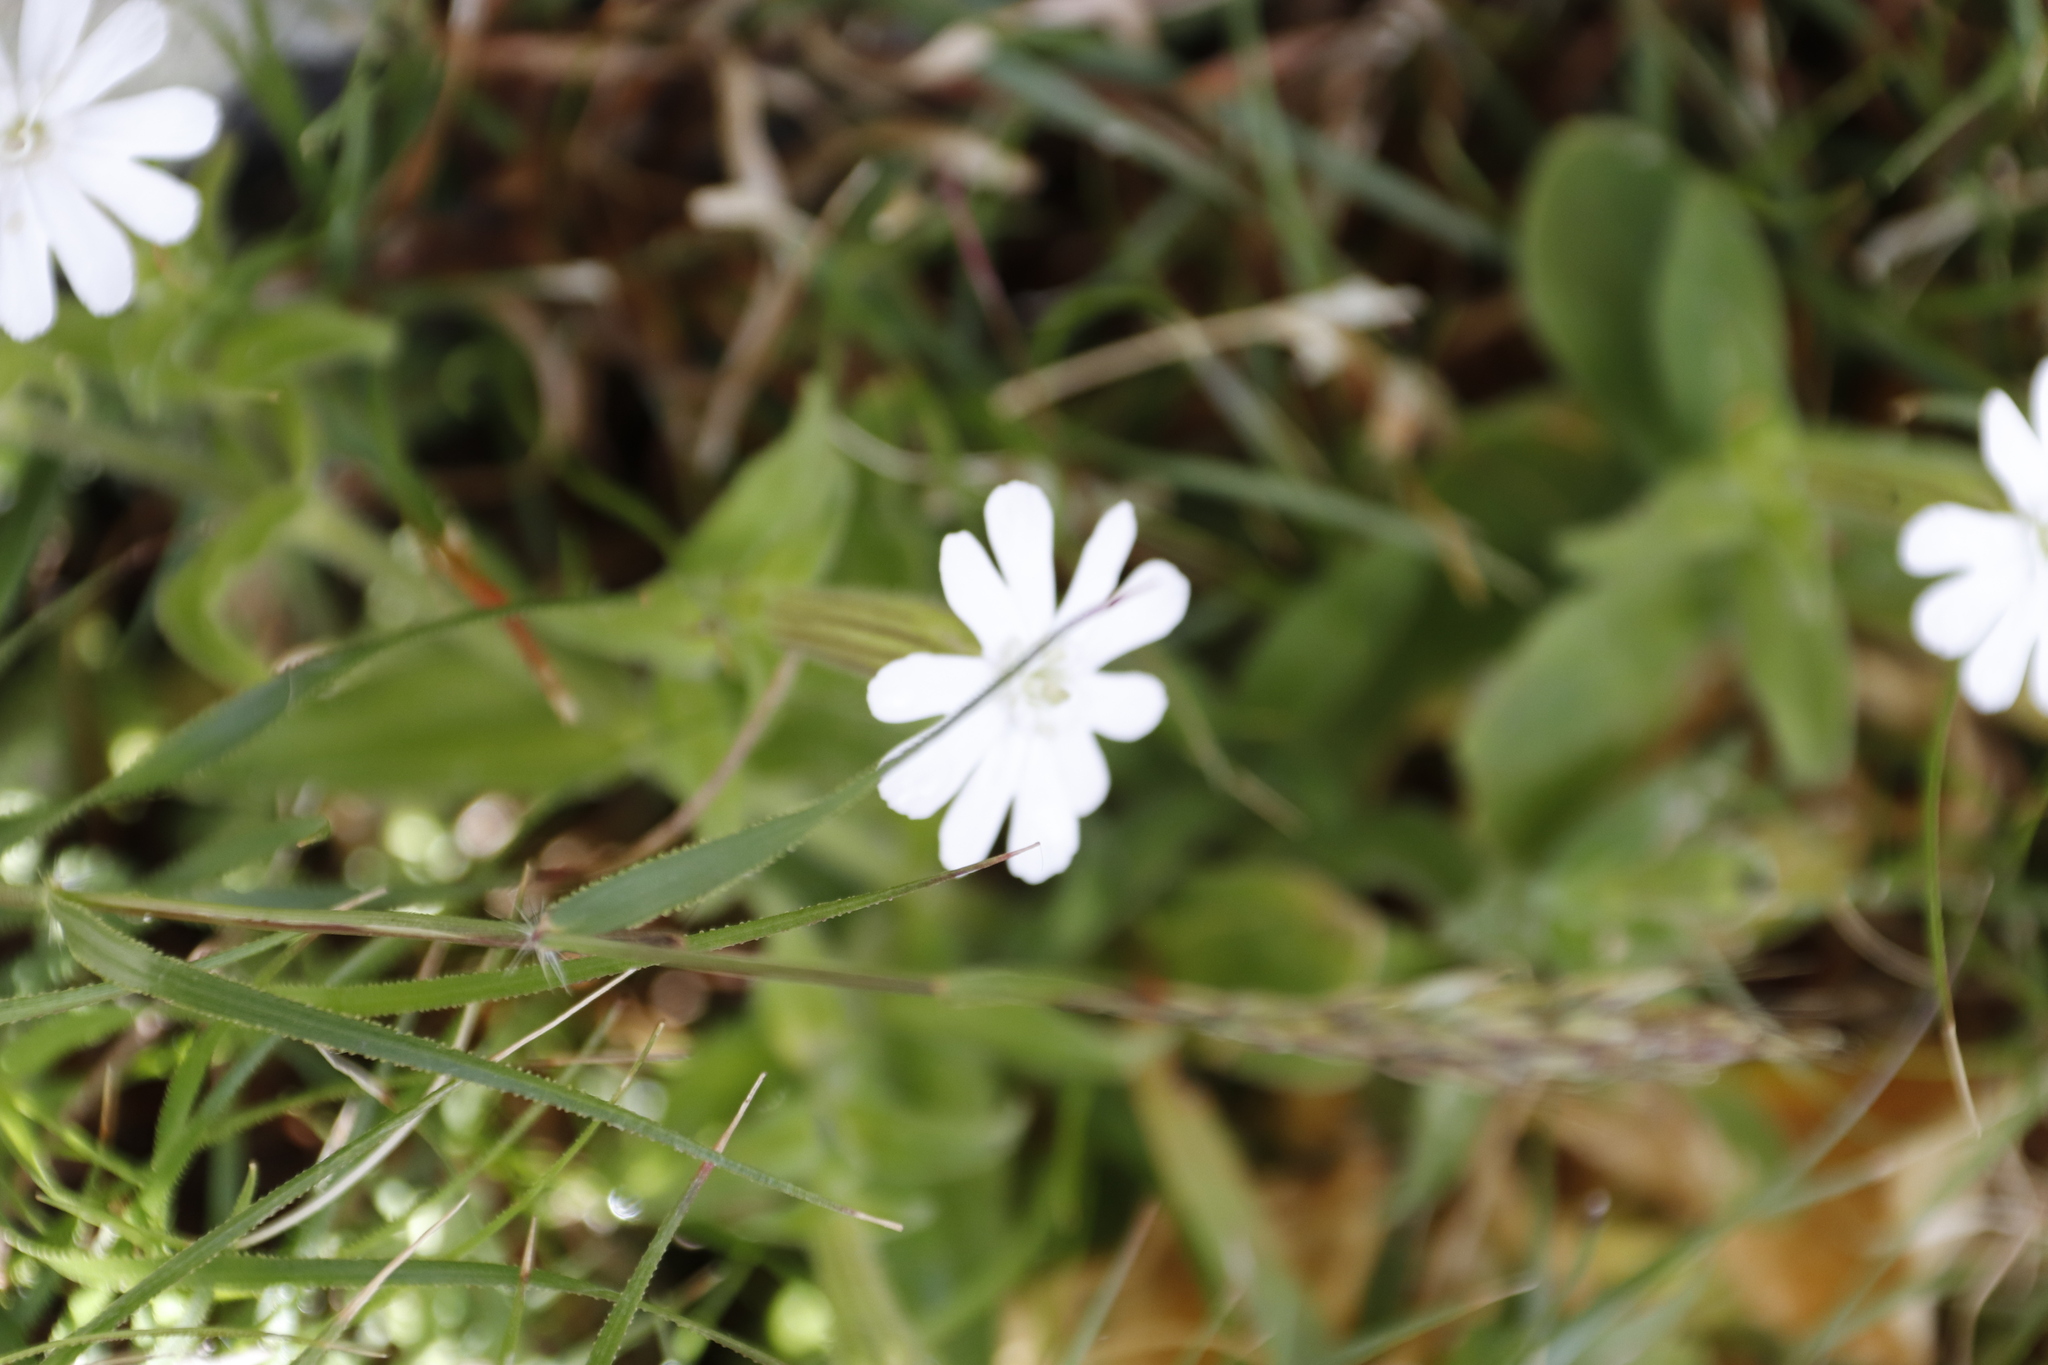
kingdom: Plantae
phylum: Tracheophyta
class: Magnoliopsida
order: Caryophyllales
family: Caryophyllaceae
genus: Silene
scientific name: Silene undulata
